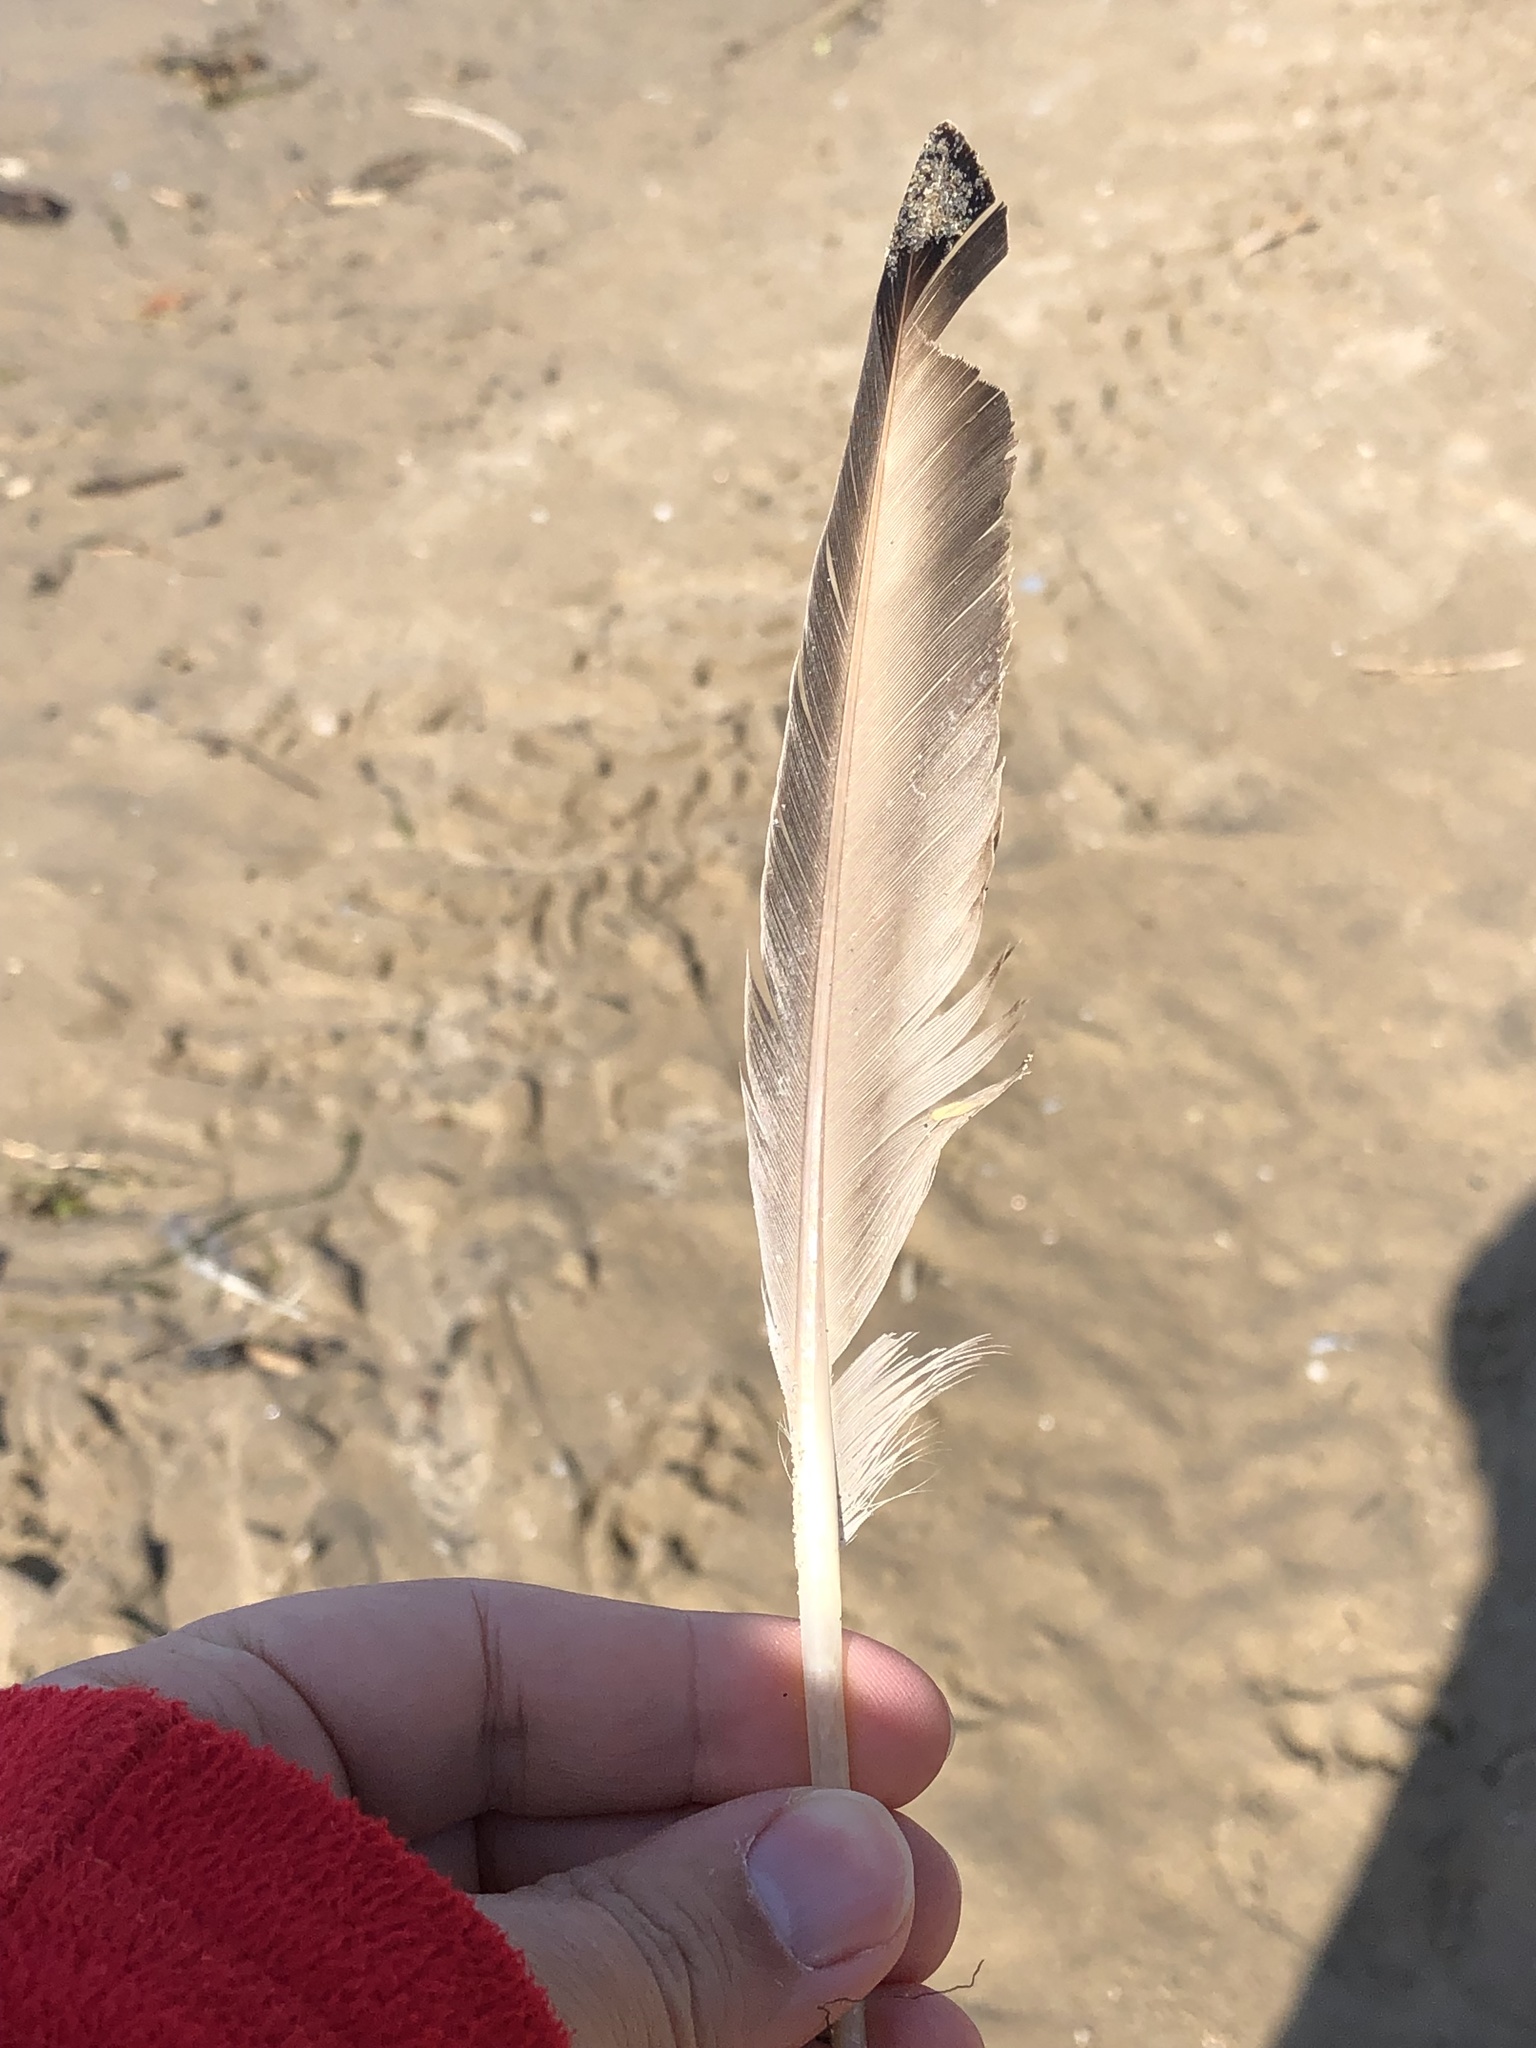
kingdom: Animalia
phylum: Chordata
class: Aves
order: Anseriformes
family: Anatidae
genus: Anas
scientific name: Anas platyrhynchos
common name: Mallard
